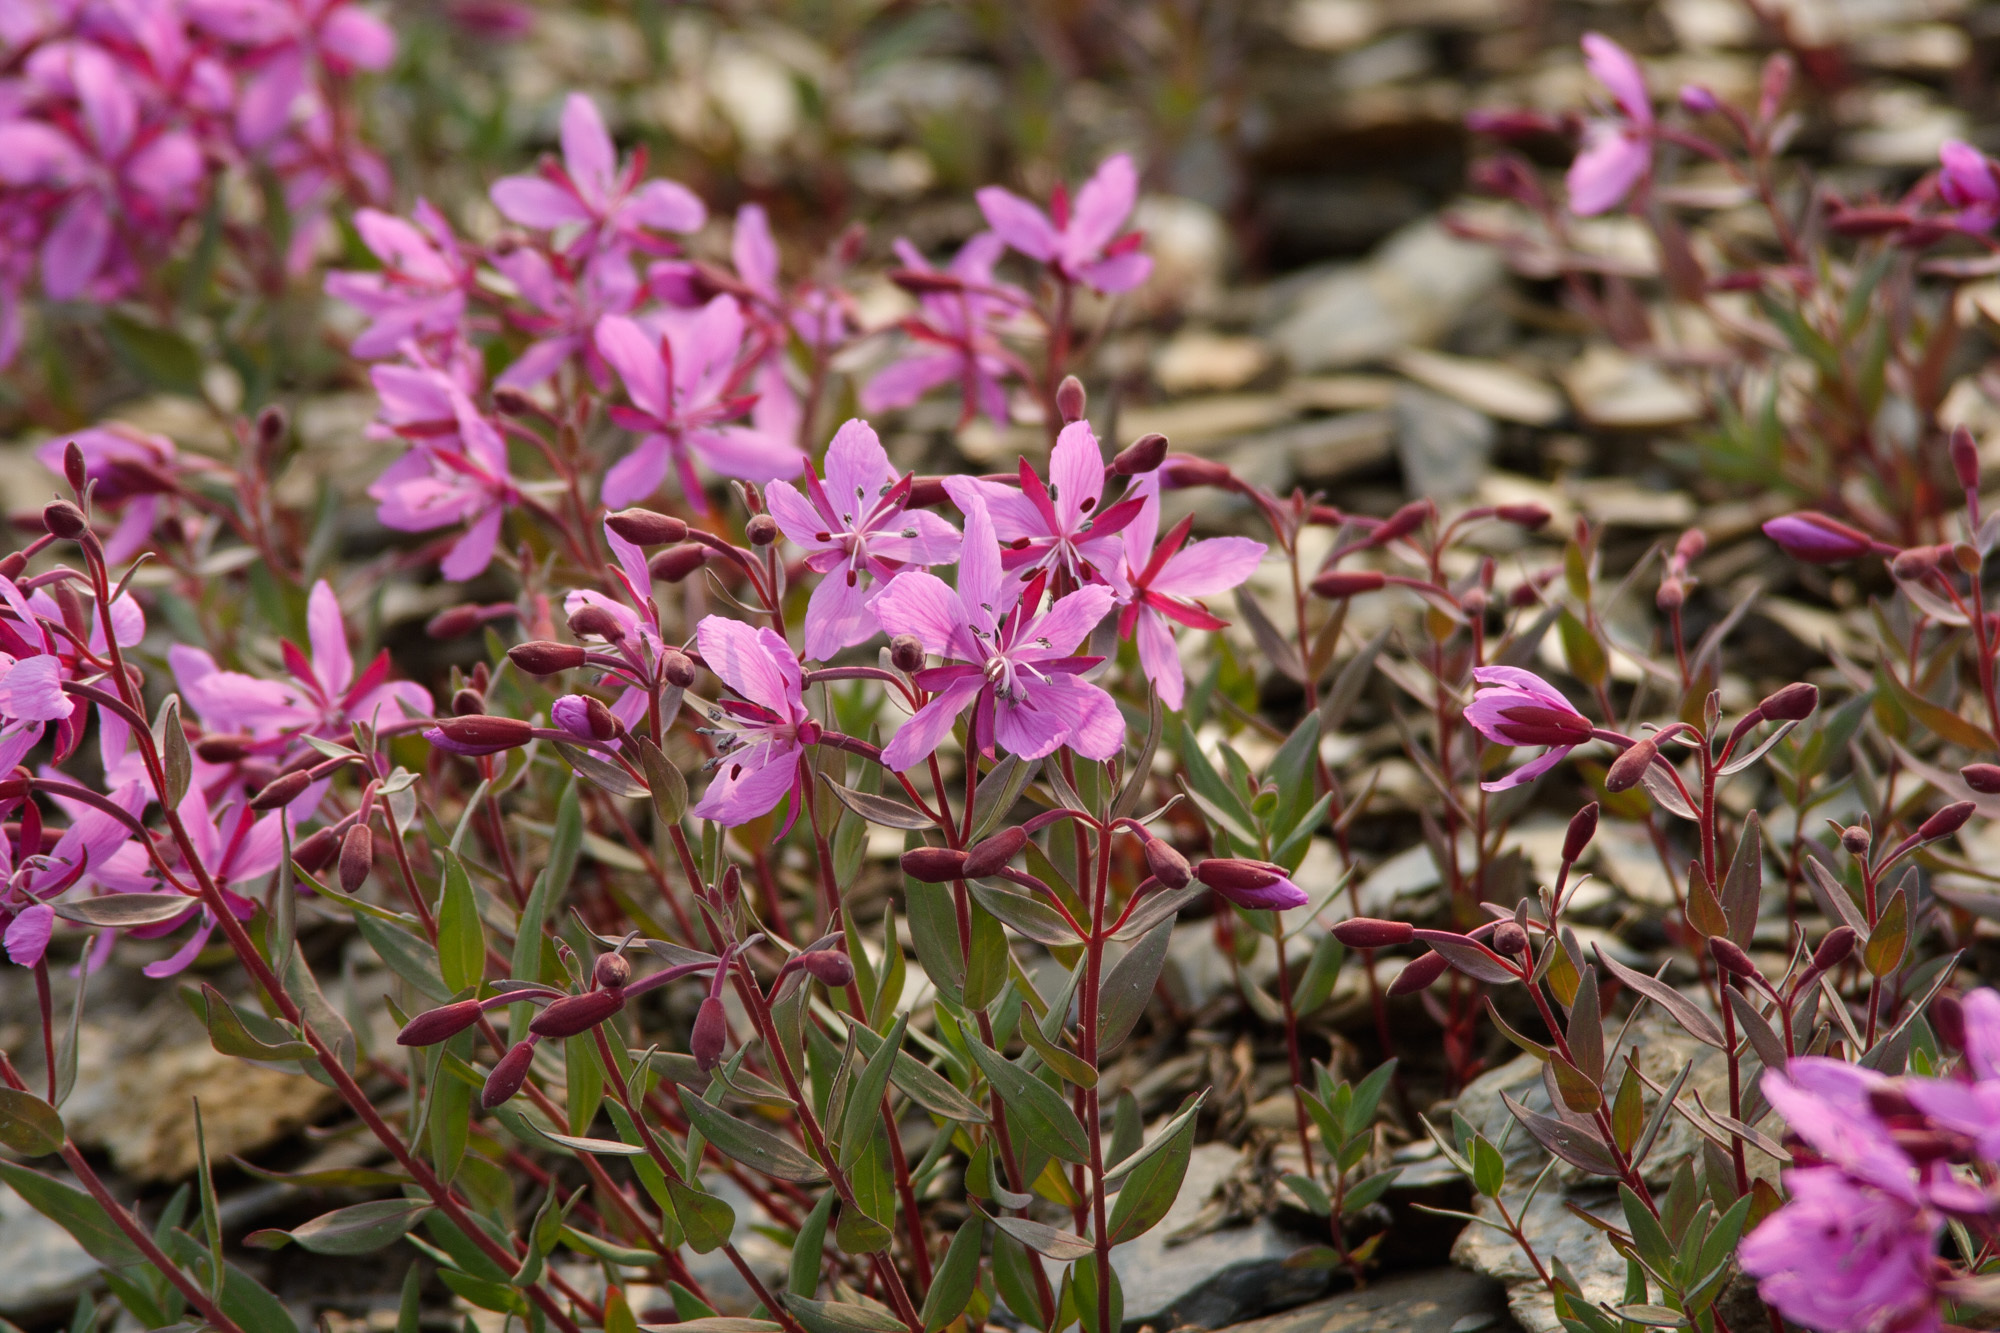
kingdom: Plantae
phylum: Tracheophyta
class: Magnoliopsida
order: Myrtales
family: Onagraceae
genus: Chamaenerion
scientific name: Chamaenerion latifolium
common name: Dwarf fireweed
